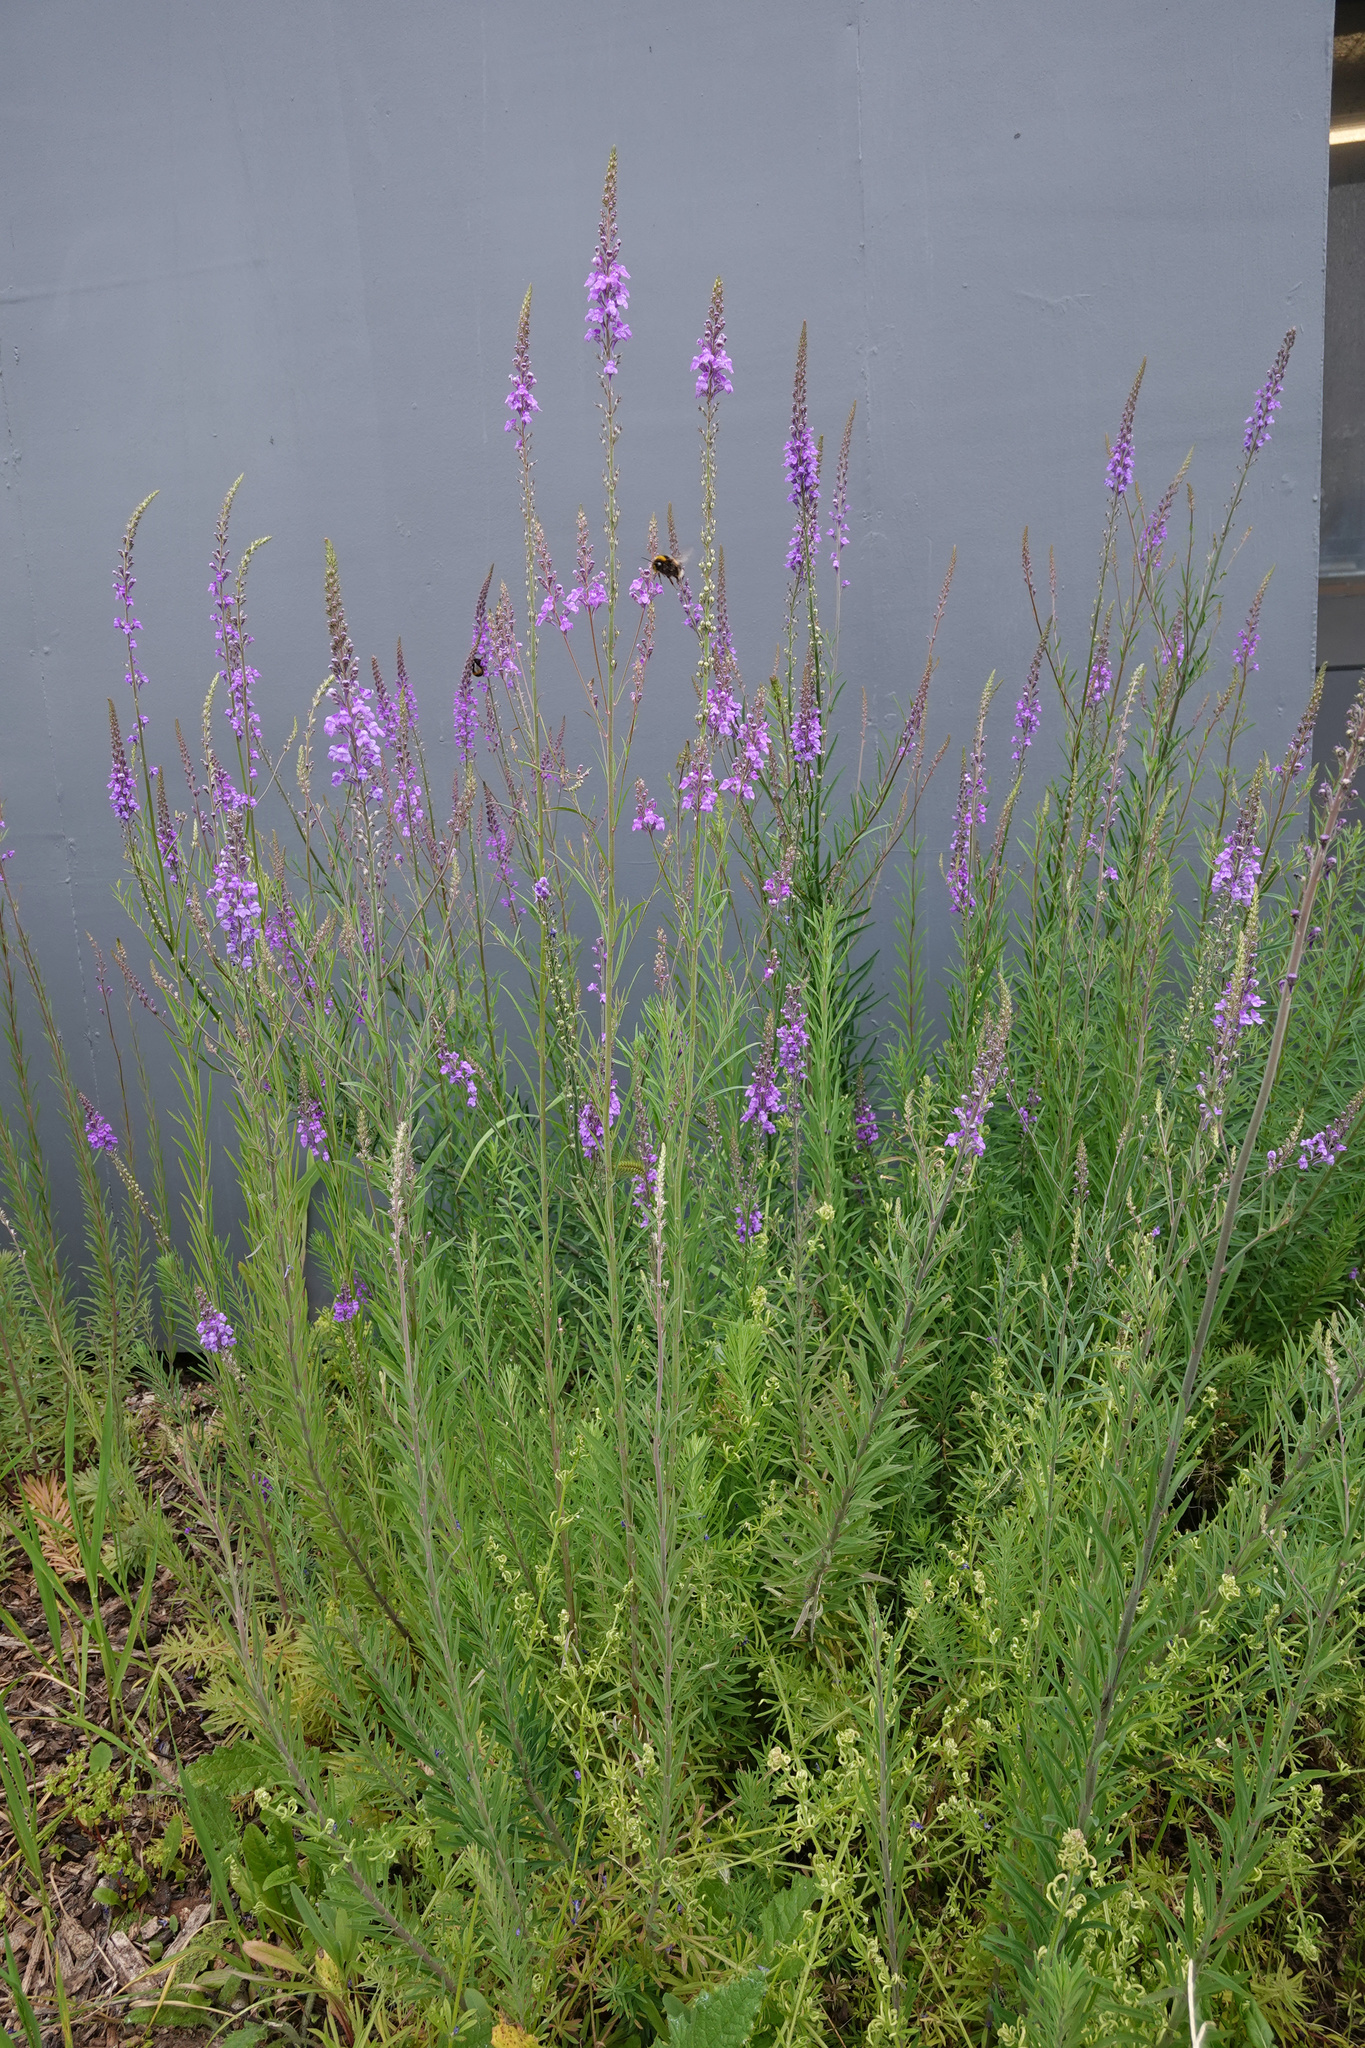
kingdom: Plantae
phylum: Tracheophyta
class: Magnoliopsida
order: Lamiales
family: Plantaginaceae
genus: Linaria
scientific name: Linaria purpurea
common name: Purple toadflax
